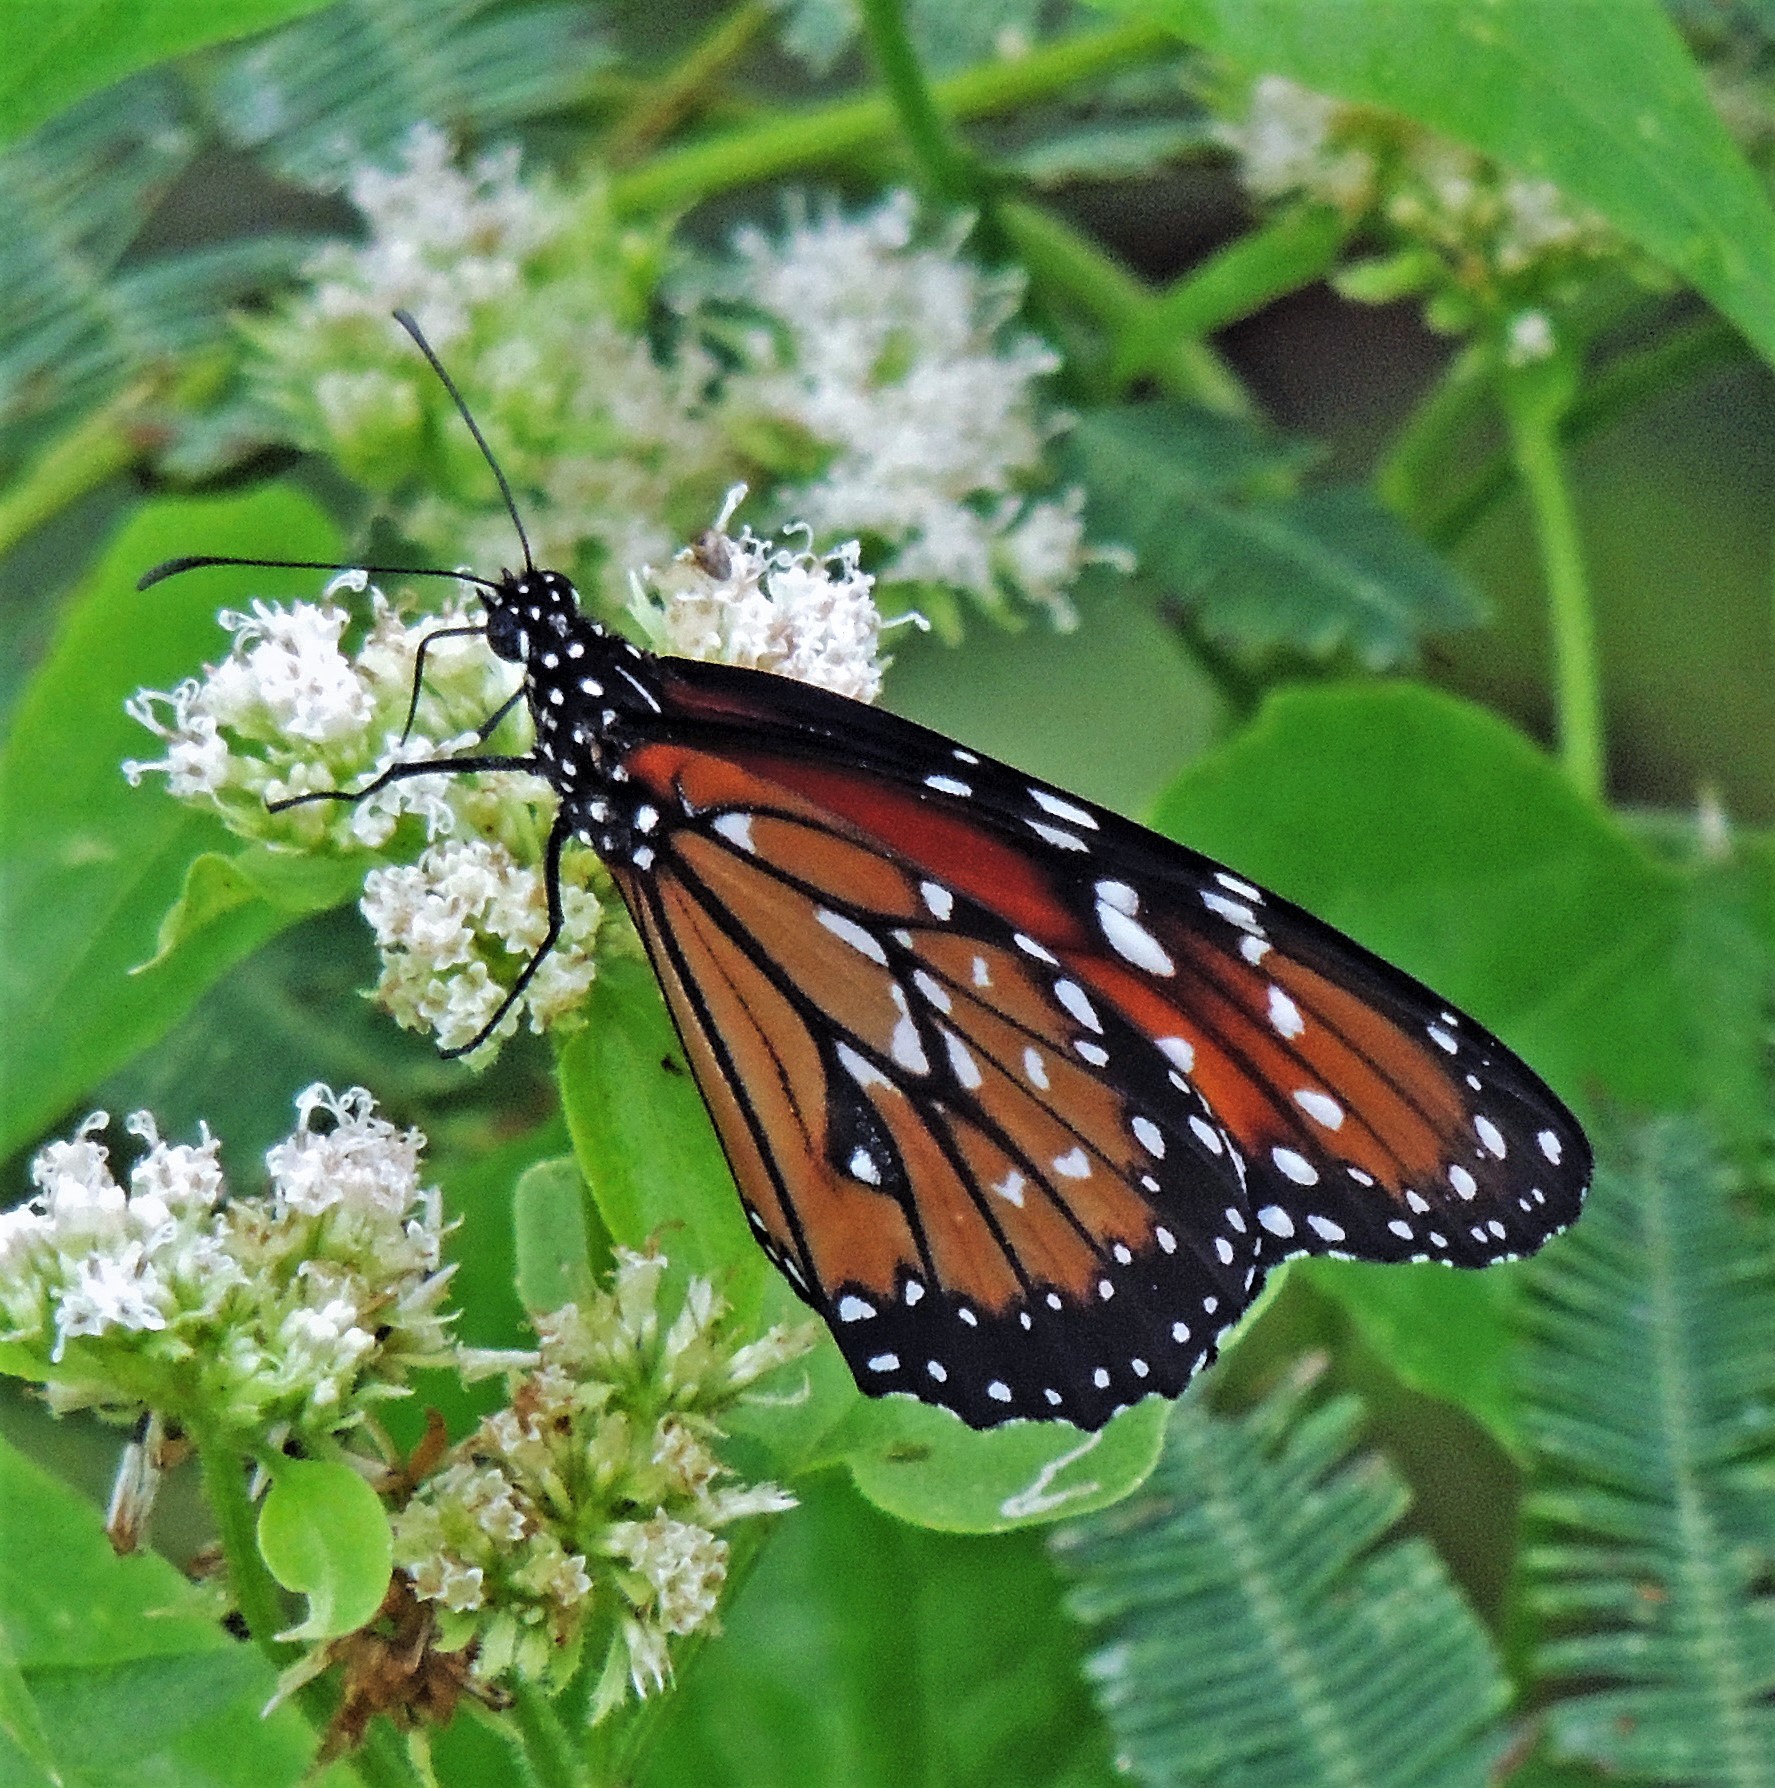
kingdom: Animalia
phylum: Arthropoda
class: Insecta
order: Lepidoptera
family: Nymphalidae
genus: Danaus
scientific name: Danaus eresimus
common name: Soldier
